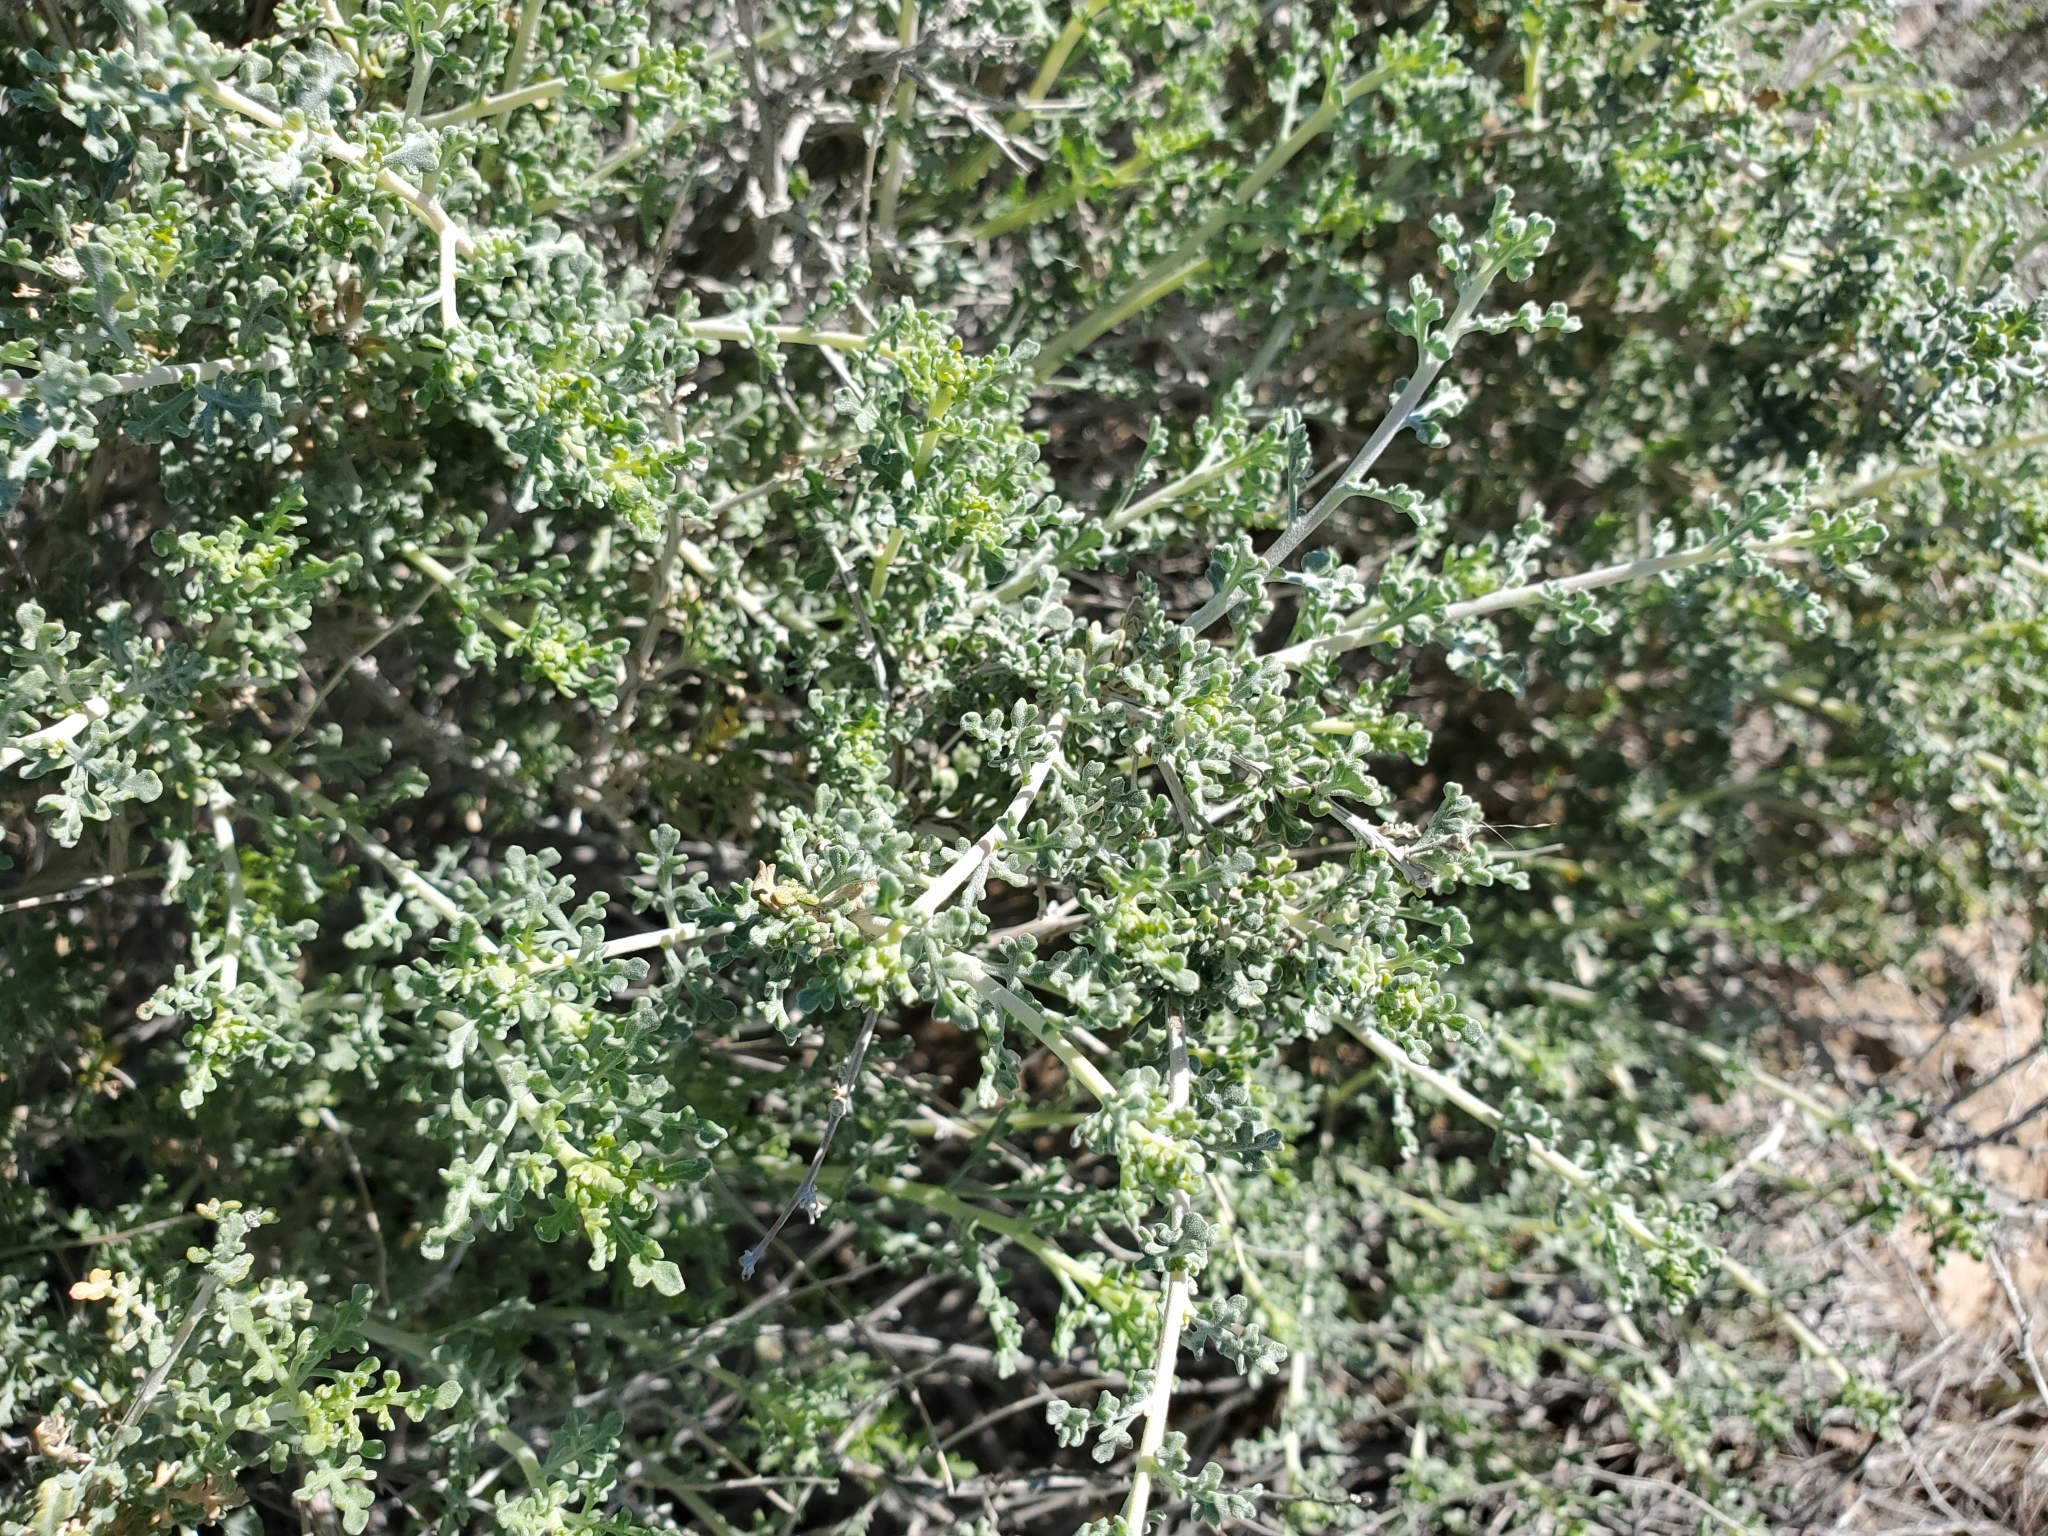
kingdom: Plantae
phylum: Tracheophyta
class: Magnoliopsida
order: Asterales
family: Asteraceae
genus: Ambrosia
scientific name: Ambrosia dumosa
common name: Bur-sage
